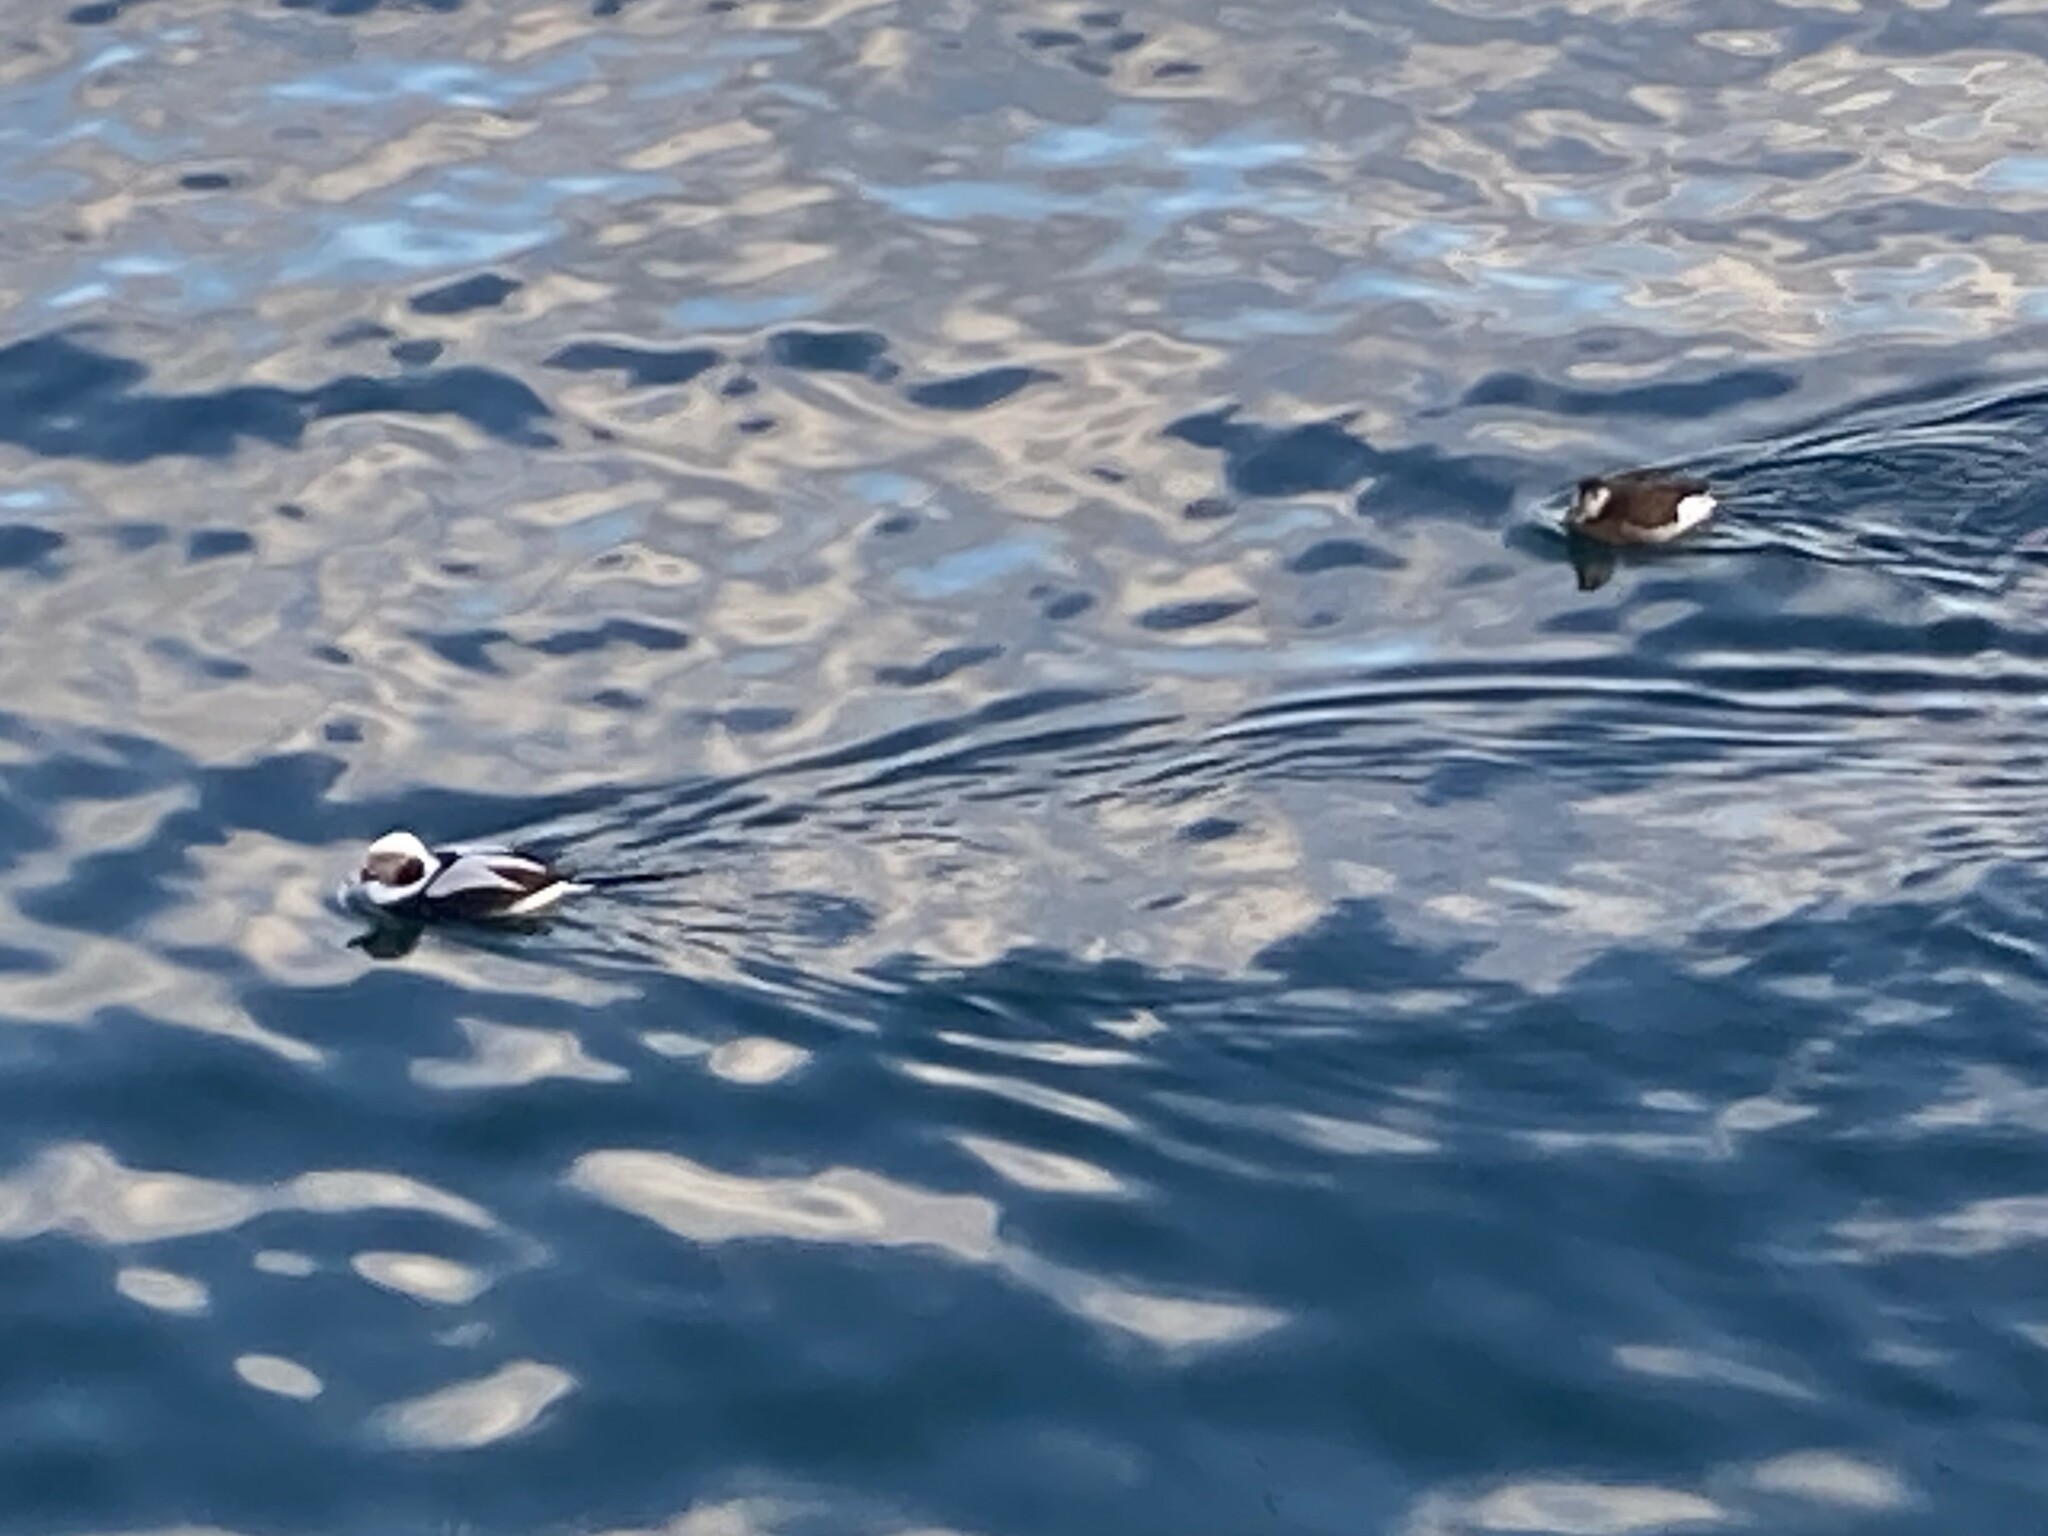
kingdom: Animalia
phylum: Chordata
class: Aves
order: Anseriformes
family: Anatidae
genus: Clangula
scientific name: Clangula hyemalis
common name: Long-tailed duck
